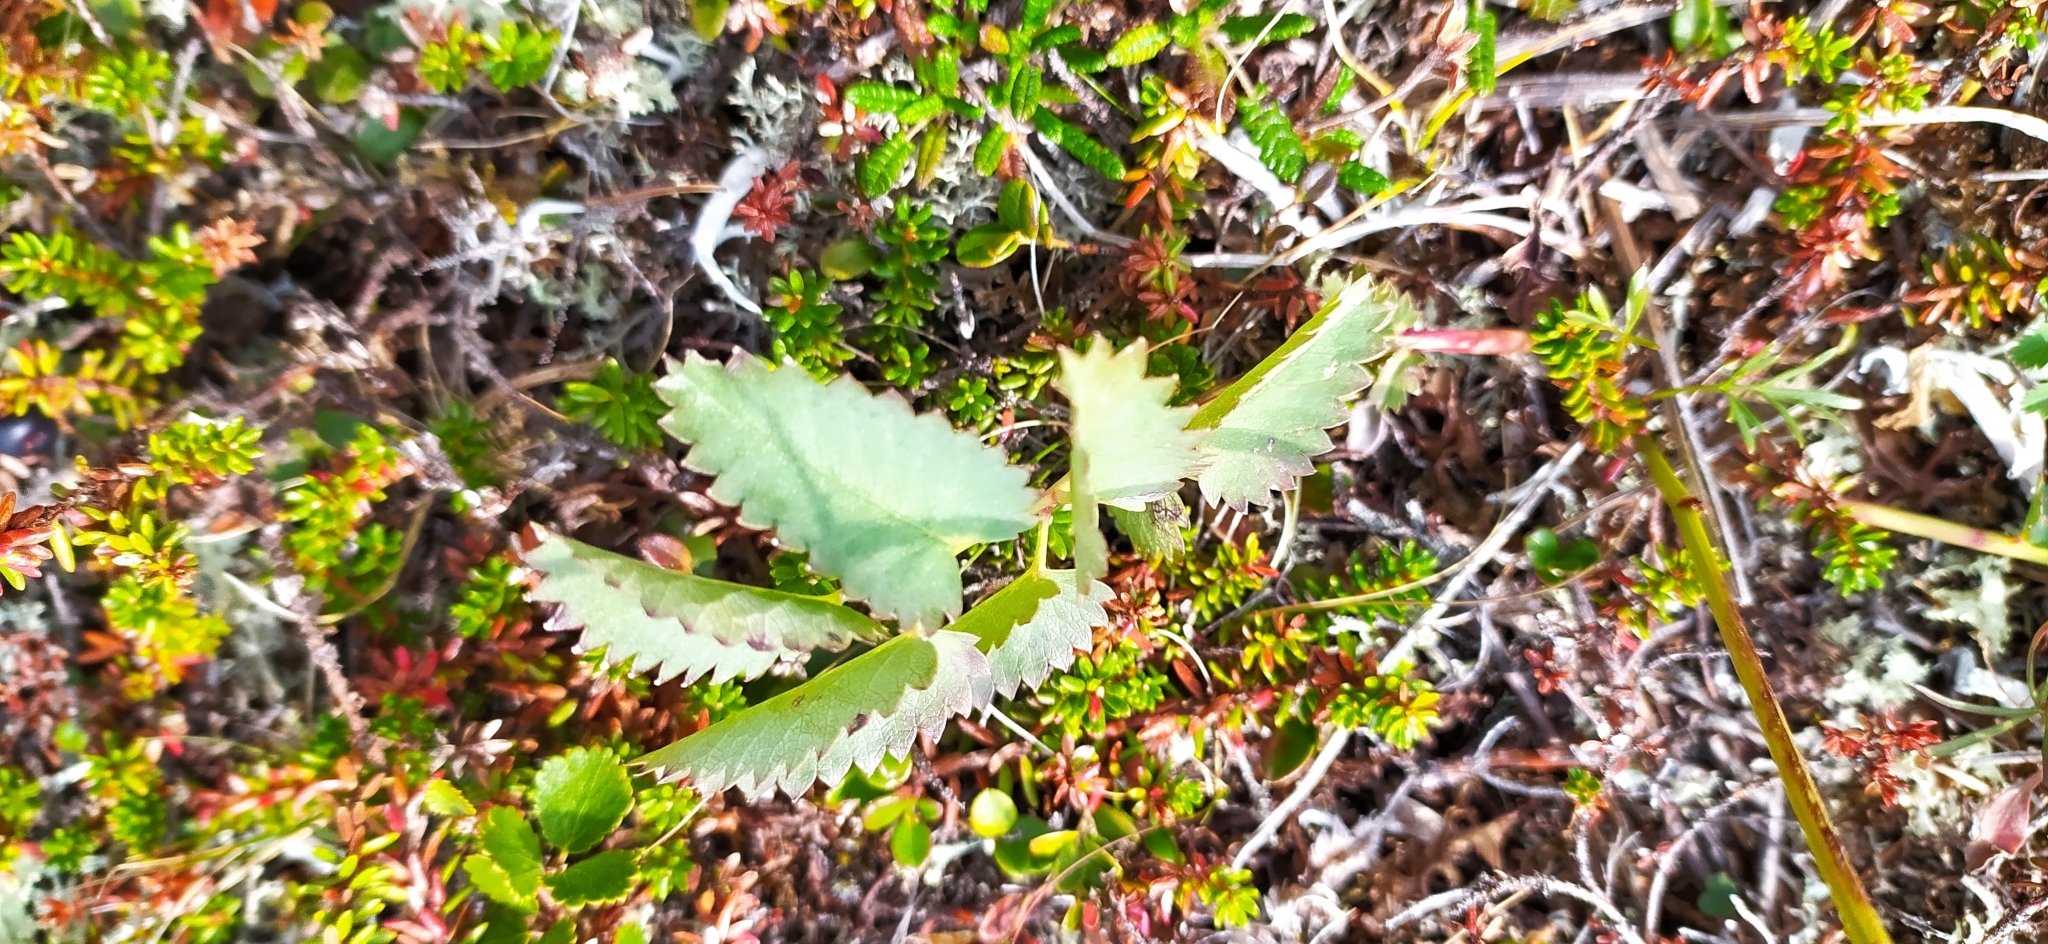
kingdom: Plantae
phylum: Tracheophyta
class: Magnoliopsida
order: Rosales
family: Rosaceae
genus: Sanguisorba
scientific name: Sanguisorba officinalis
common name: Great burnet
